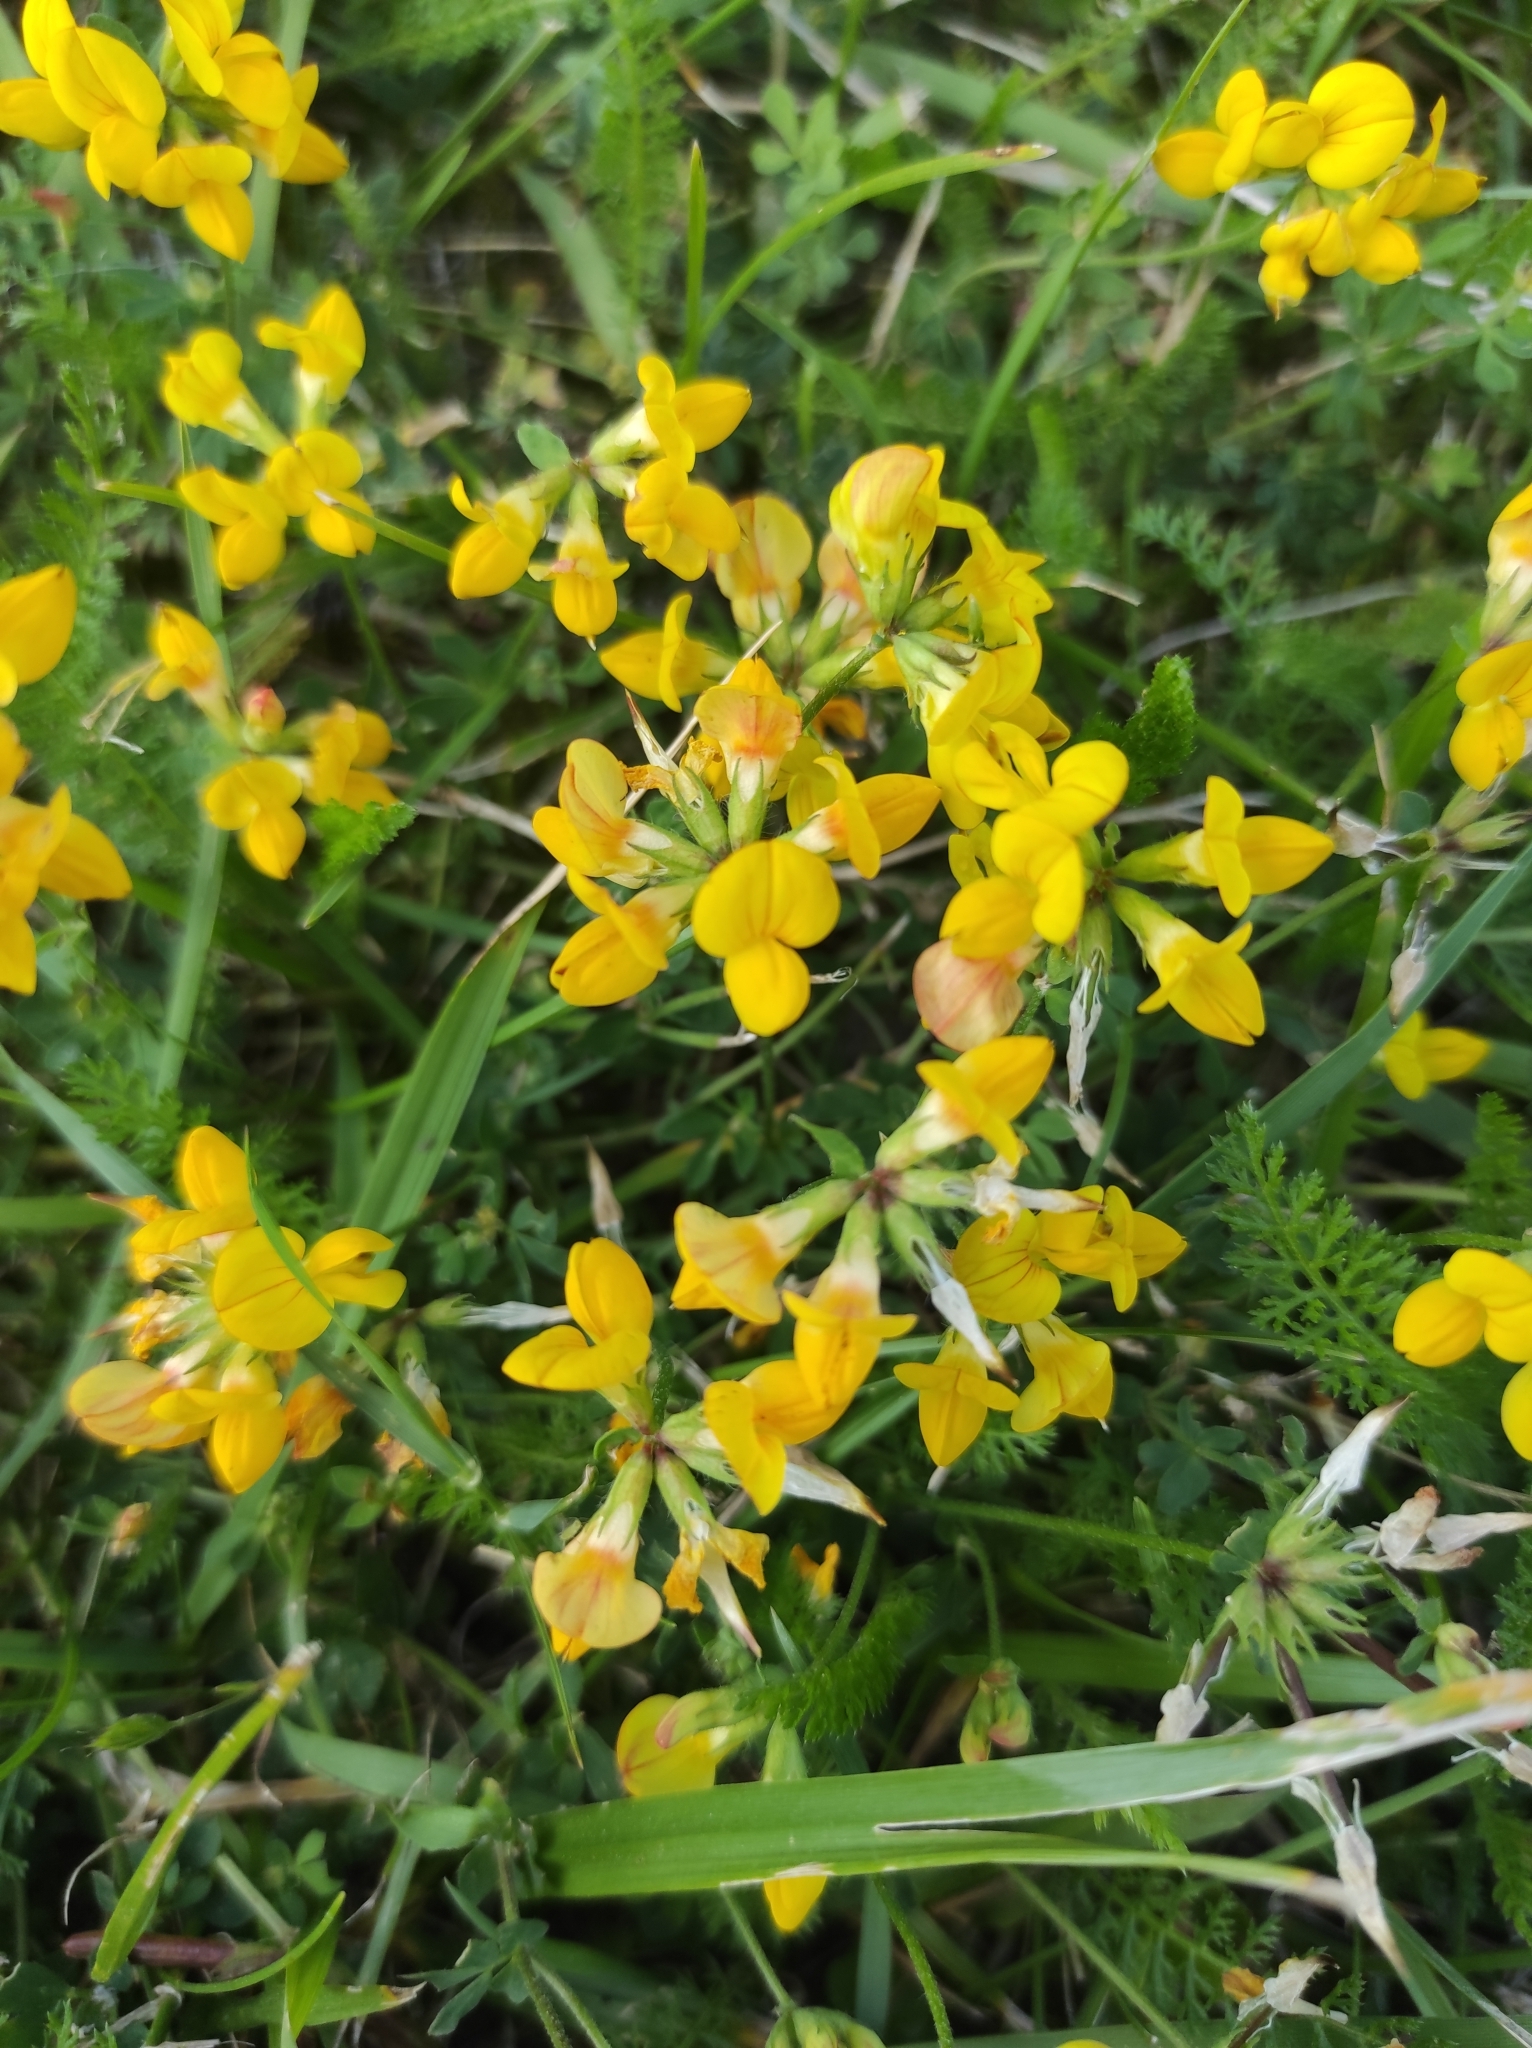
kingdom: Plantae
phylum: Tracheophyta
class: Magnoliopsida
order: Fabales
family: Fabaceae
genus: Lotus
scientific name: Lotus corniculatus
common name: Common bird's-foot-trefoil
